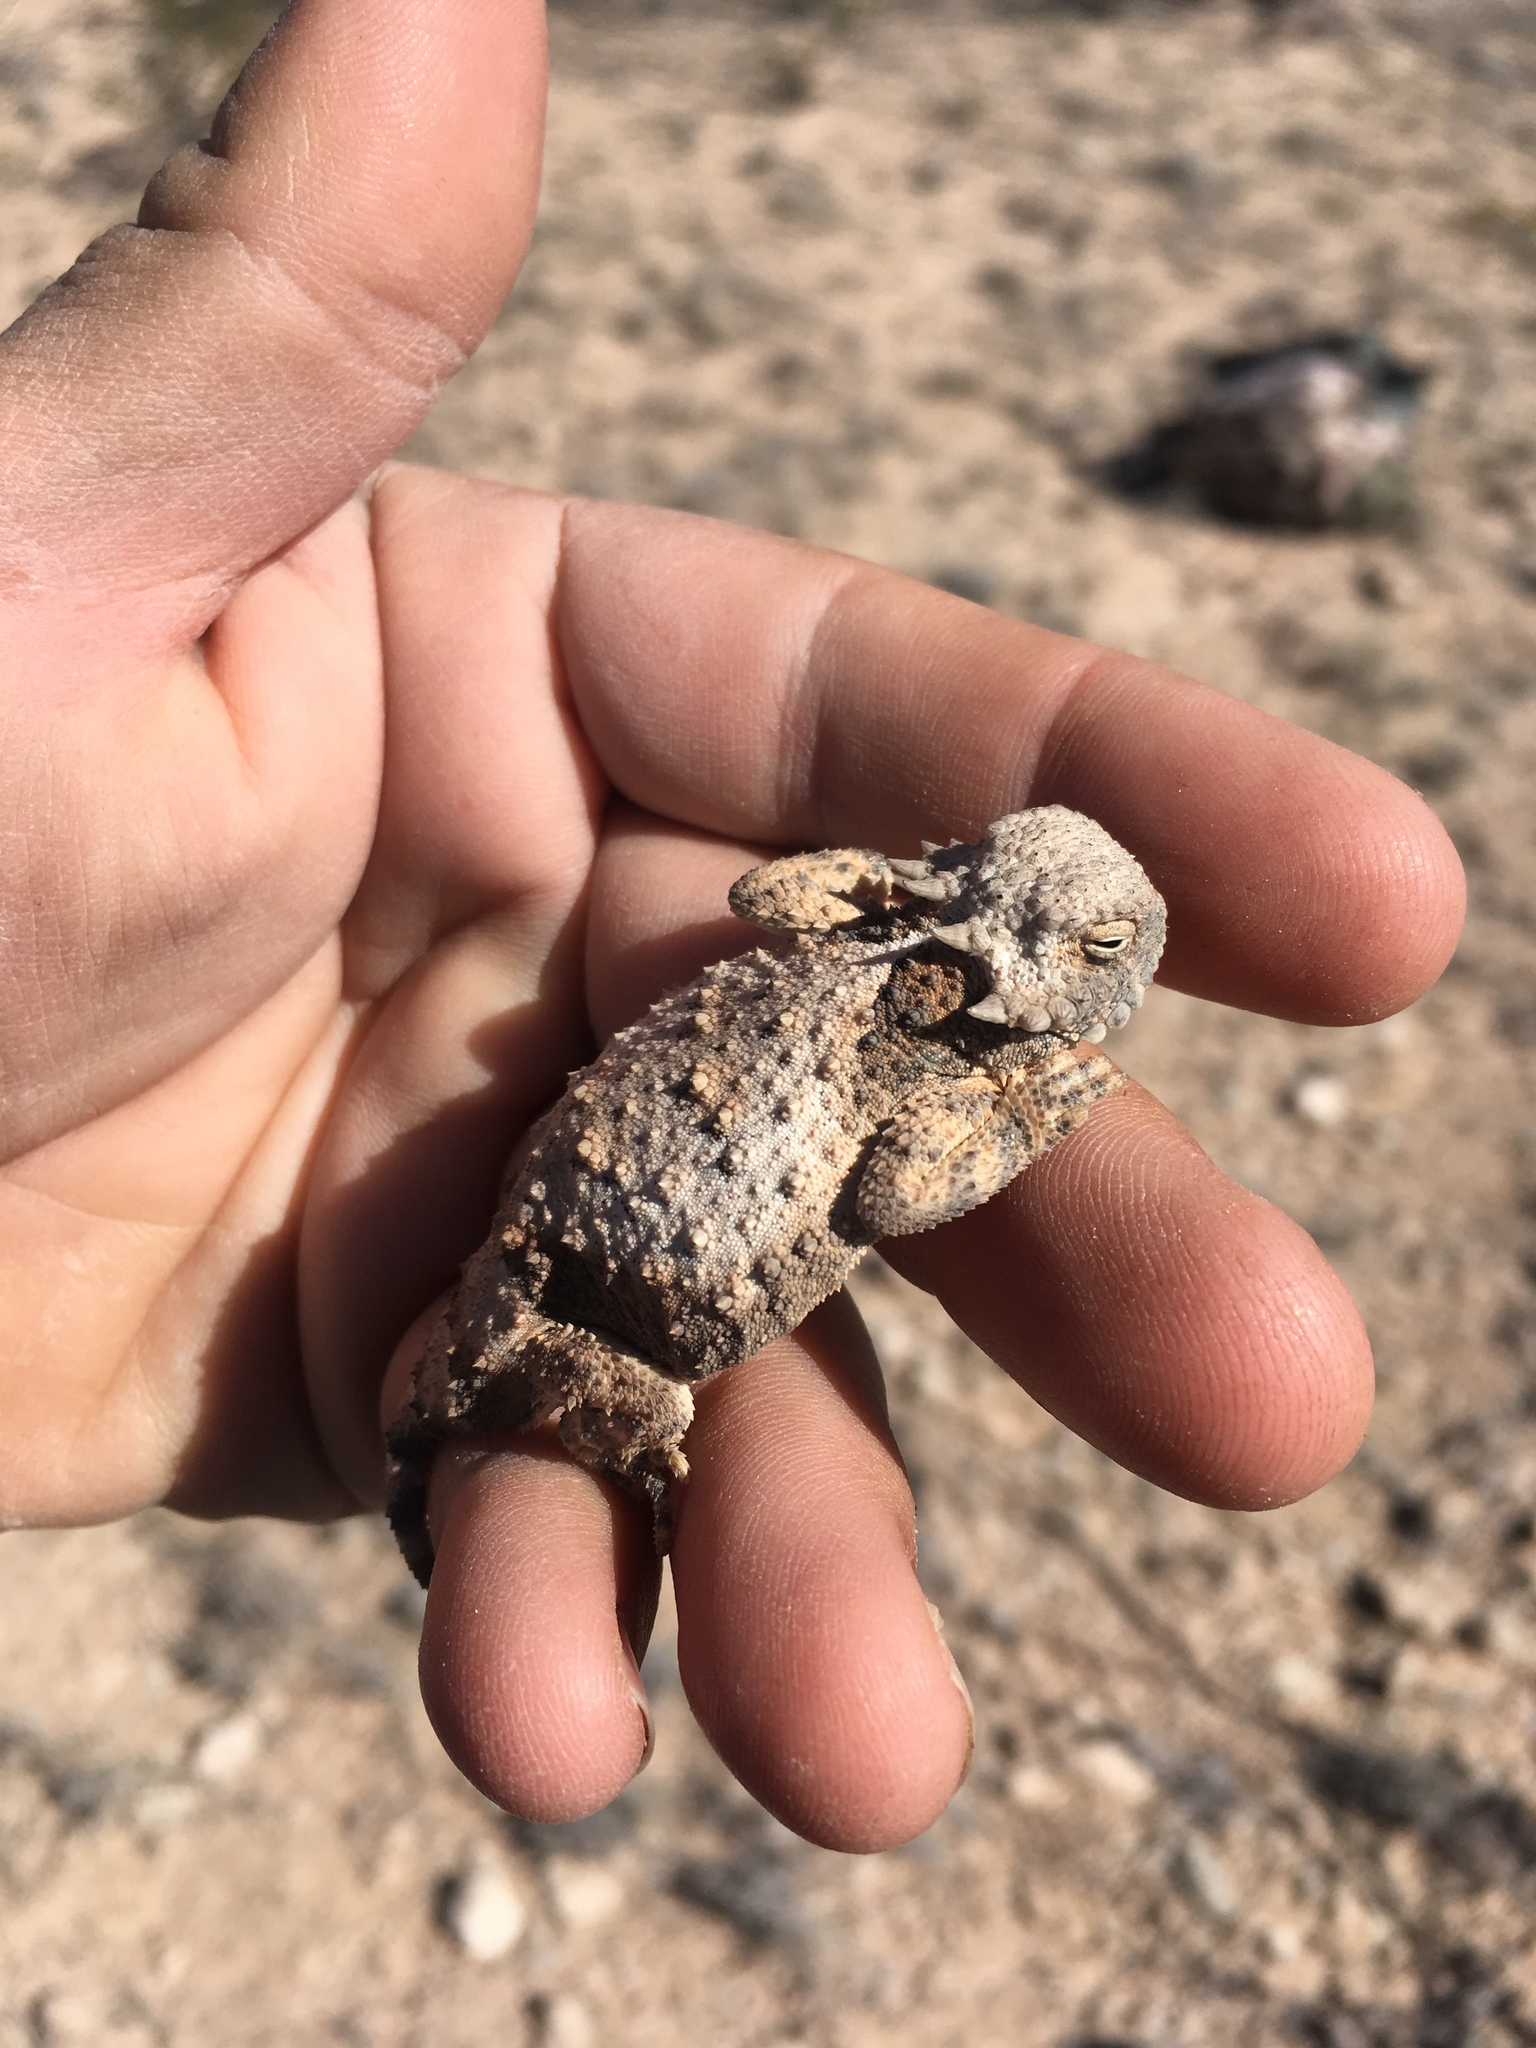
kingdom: Animalia
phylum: Chordata
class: Squamata
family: Phrynosomatidae
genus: Phrynosoma
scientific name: Phrynosoma modestum
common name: Roundtail horned lizard
